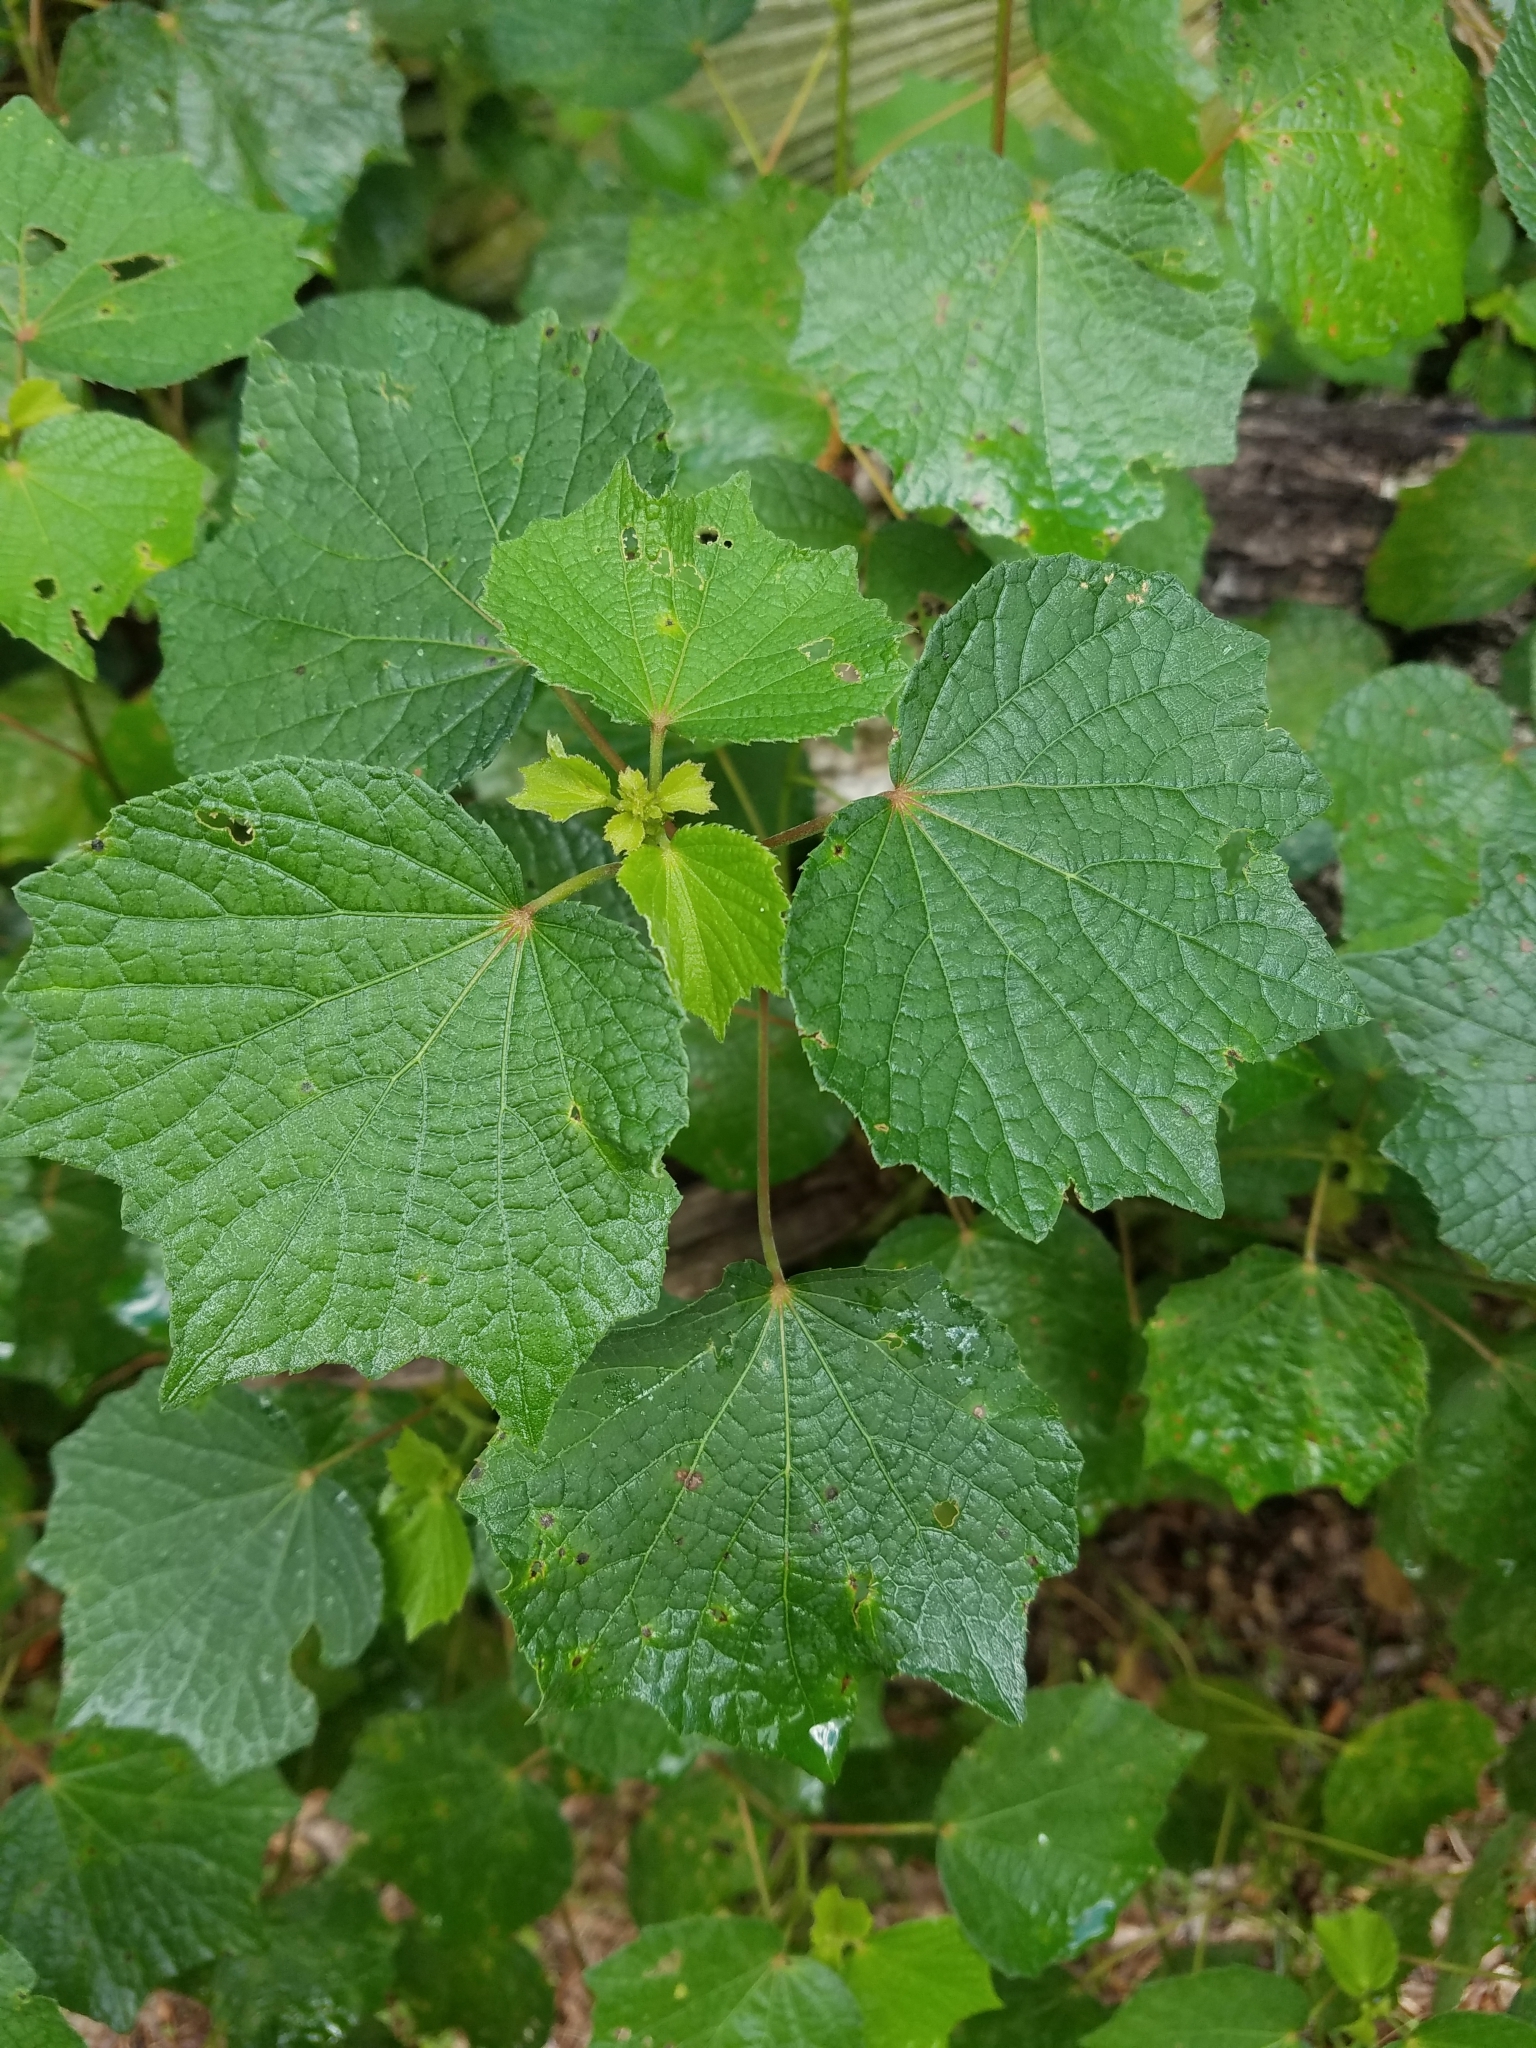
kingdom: Plantae
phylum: Tracheophyta
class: Magnoliopsida
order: Malvales
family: Malvaceae
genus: Urena
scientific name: Urena lobata
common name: Caesarweed
